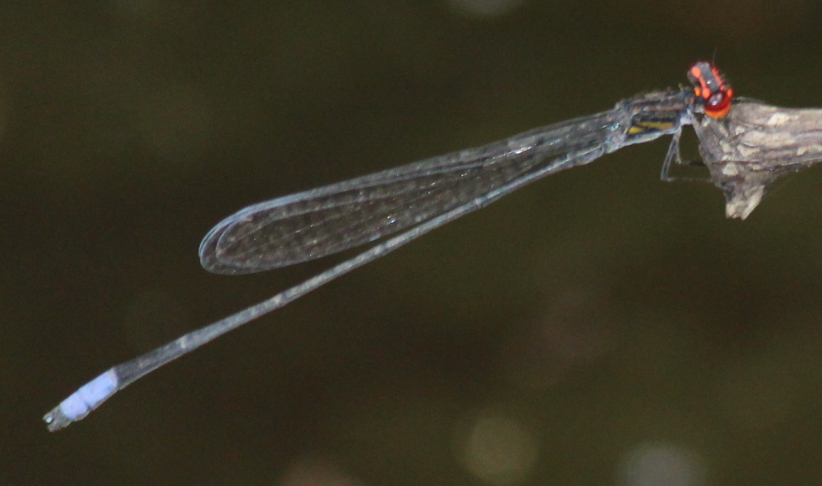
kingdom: Animalia
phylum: Arthropoda
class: Insecta
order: Odonata
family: Coenagrionidae
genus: Pseudagrion
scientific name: Pseudagrion hageni
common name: Painted sprite
